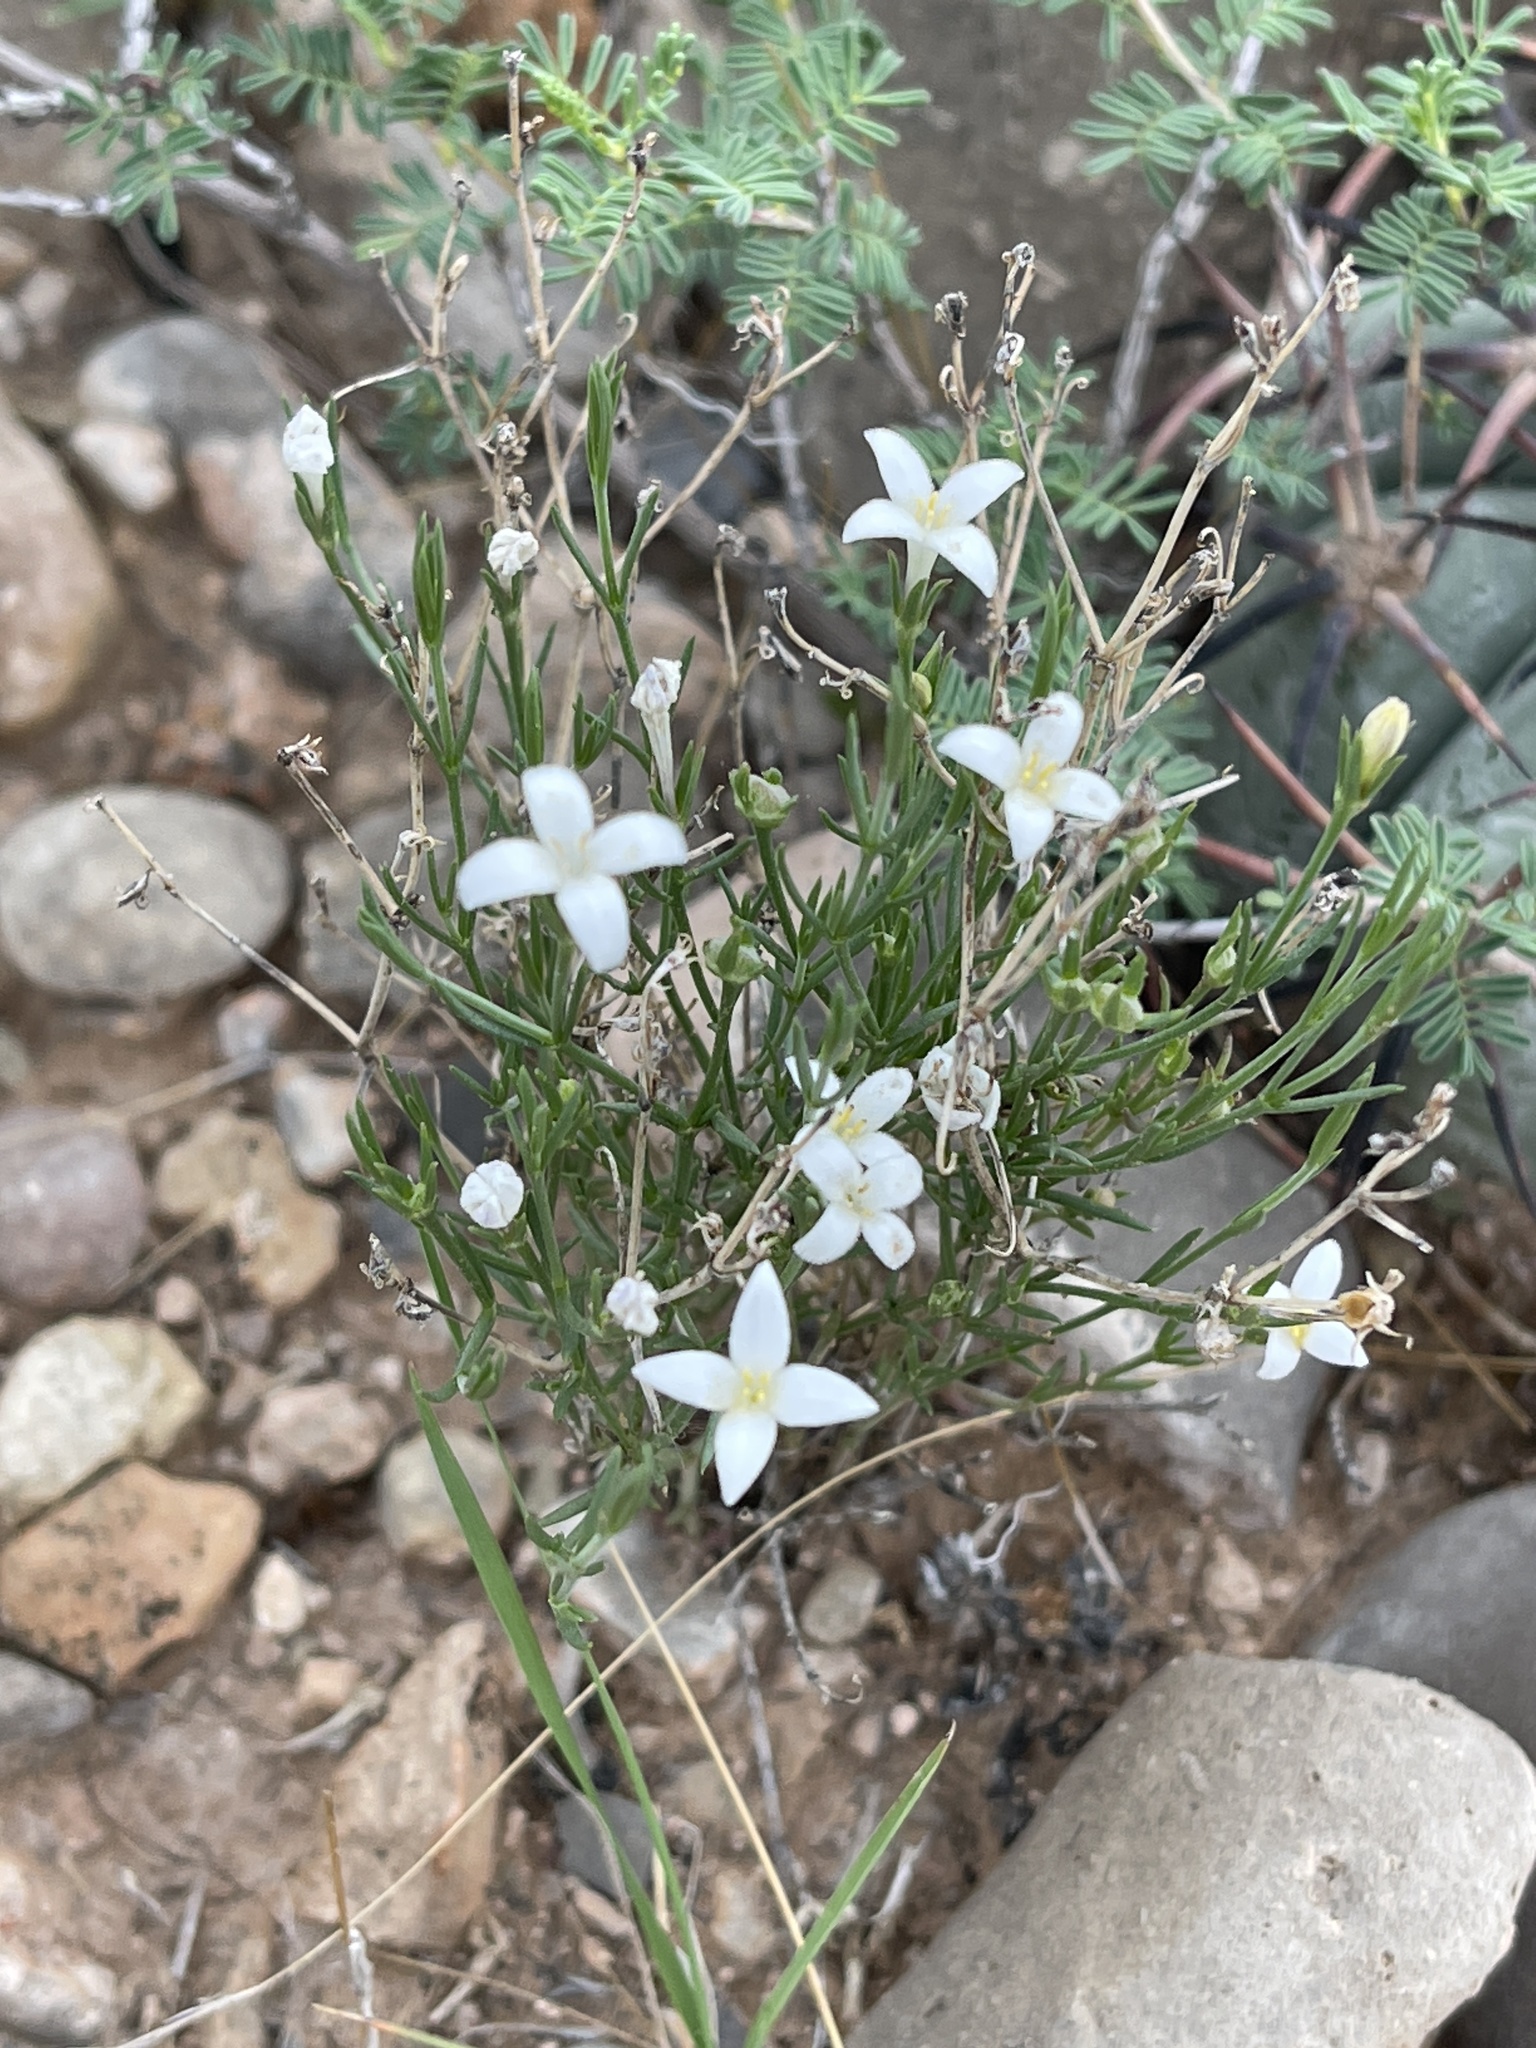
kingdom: Plantae
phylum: Tracheophyta
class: Magnoliopsida
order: Gentianales
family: Rubiaceae
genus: Houstonia
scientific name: Houstonia acerosa
